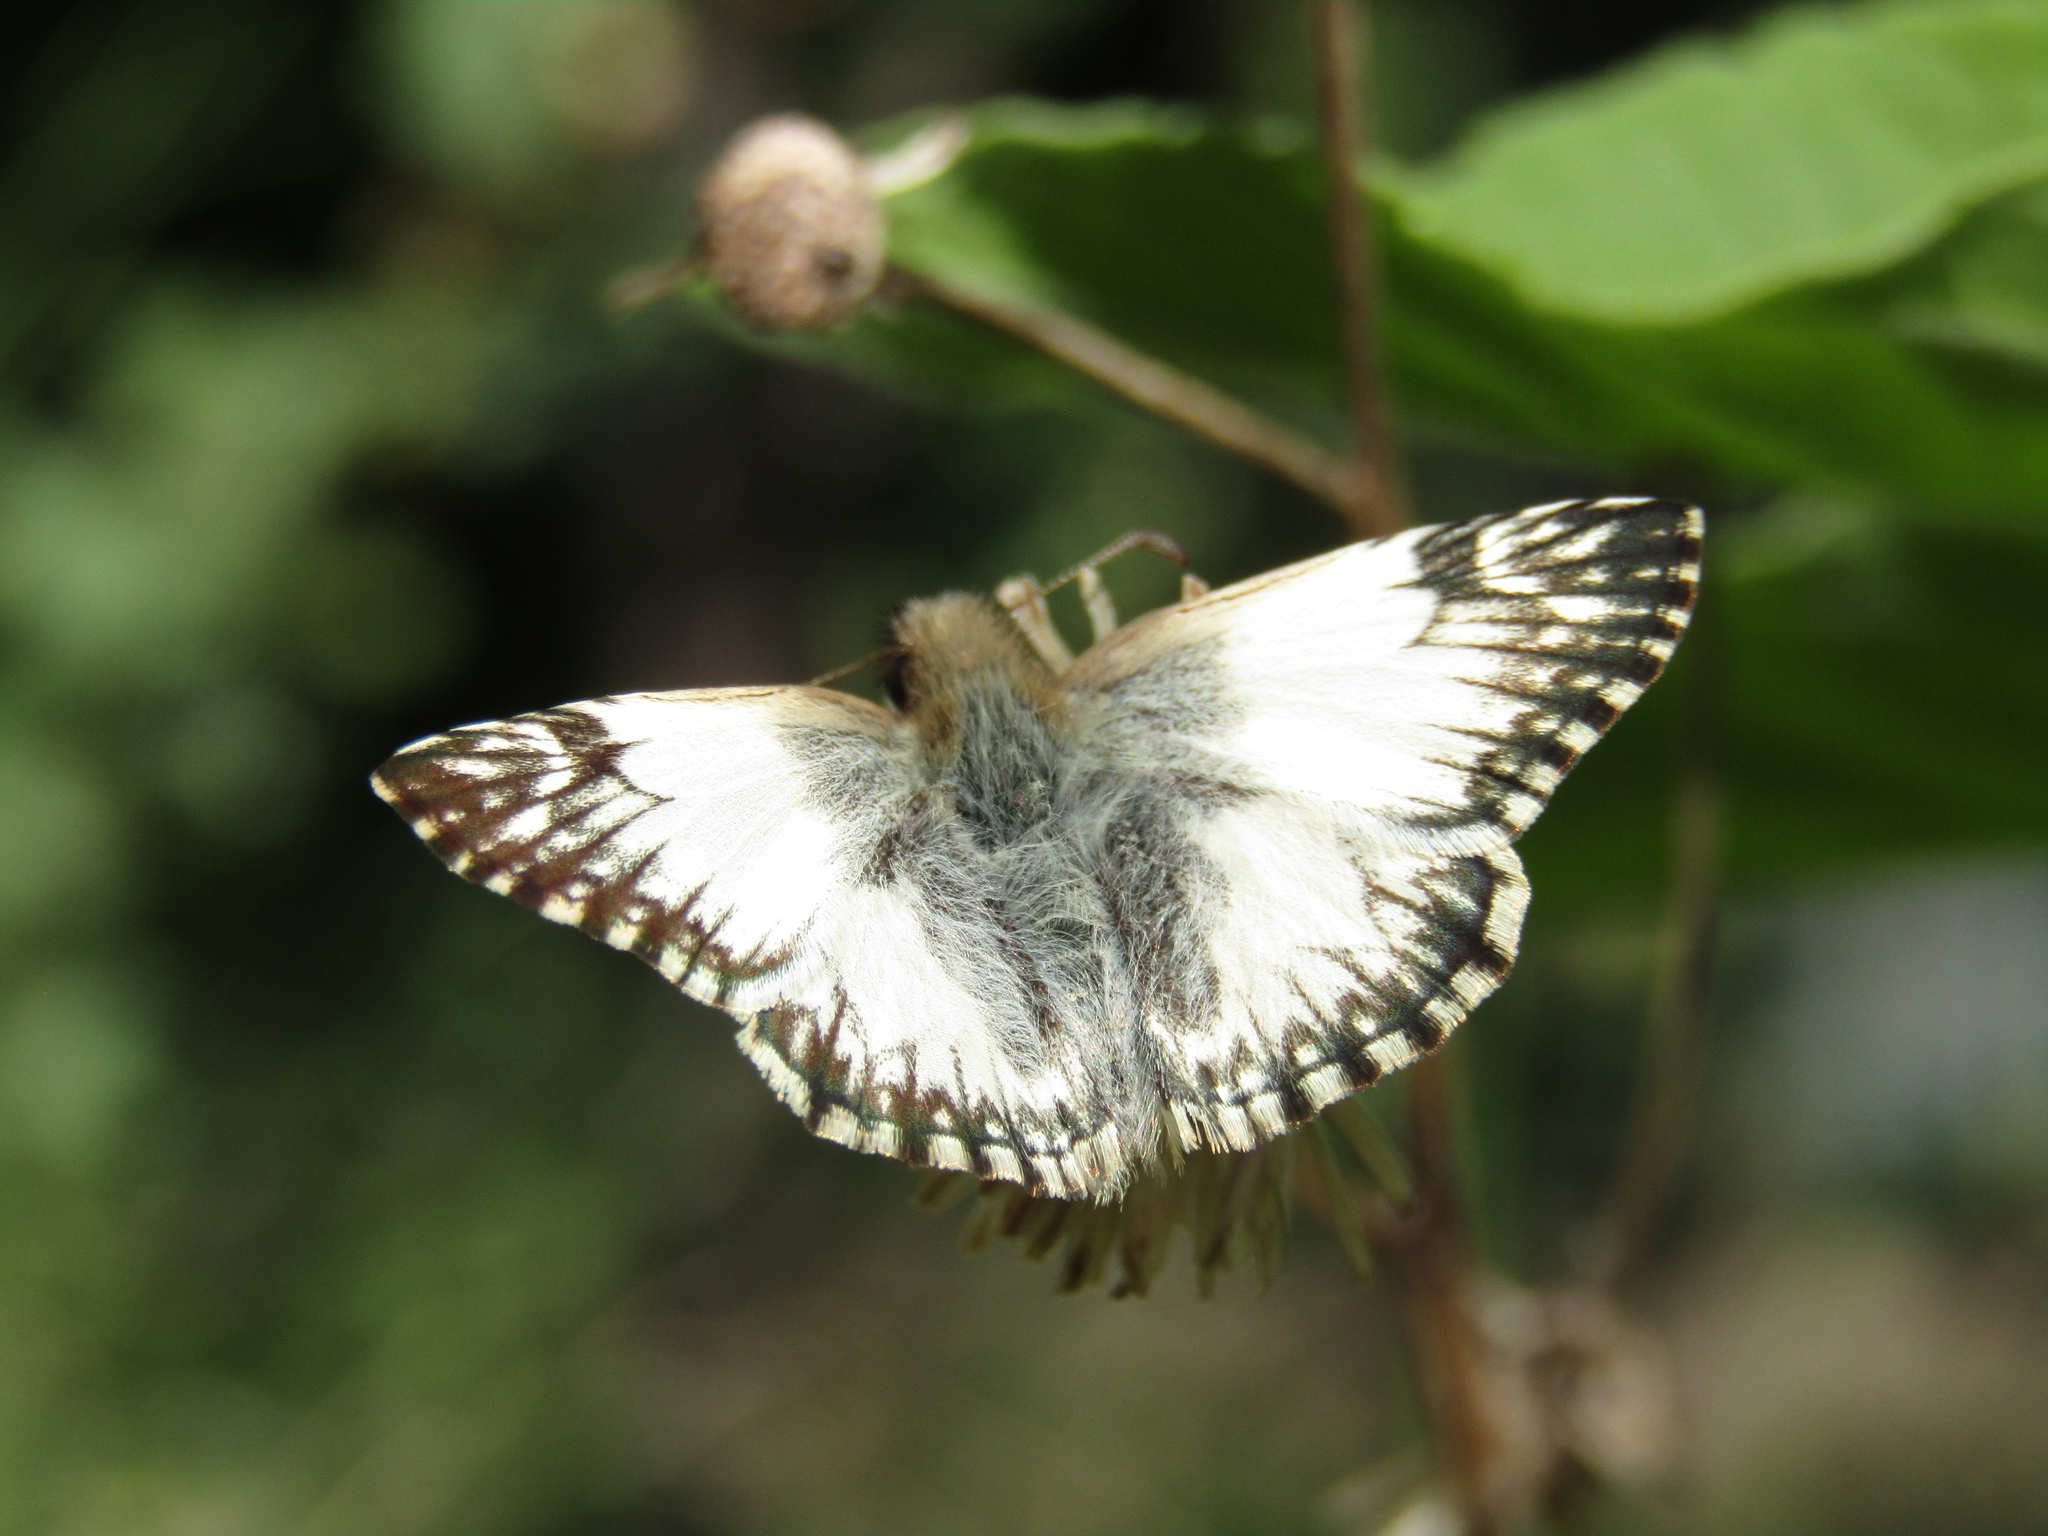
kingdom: Animalia
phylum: Arthropoda
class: Insecta
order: Lepidoptera
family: Hesperiidae
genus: Heliopetes
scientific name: Heliopetes omrina
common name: Stained white-skipper
